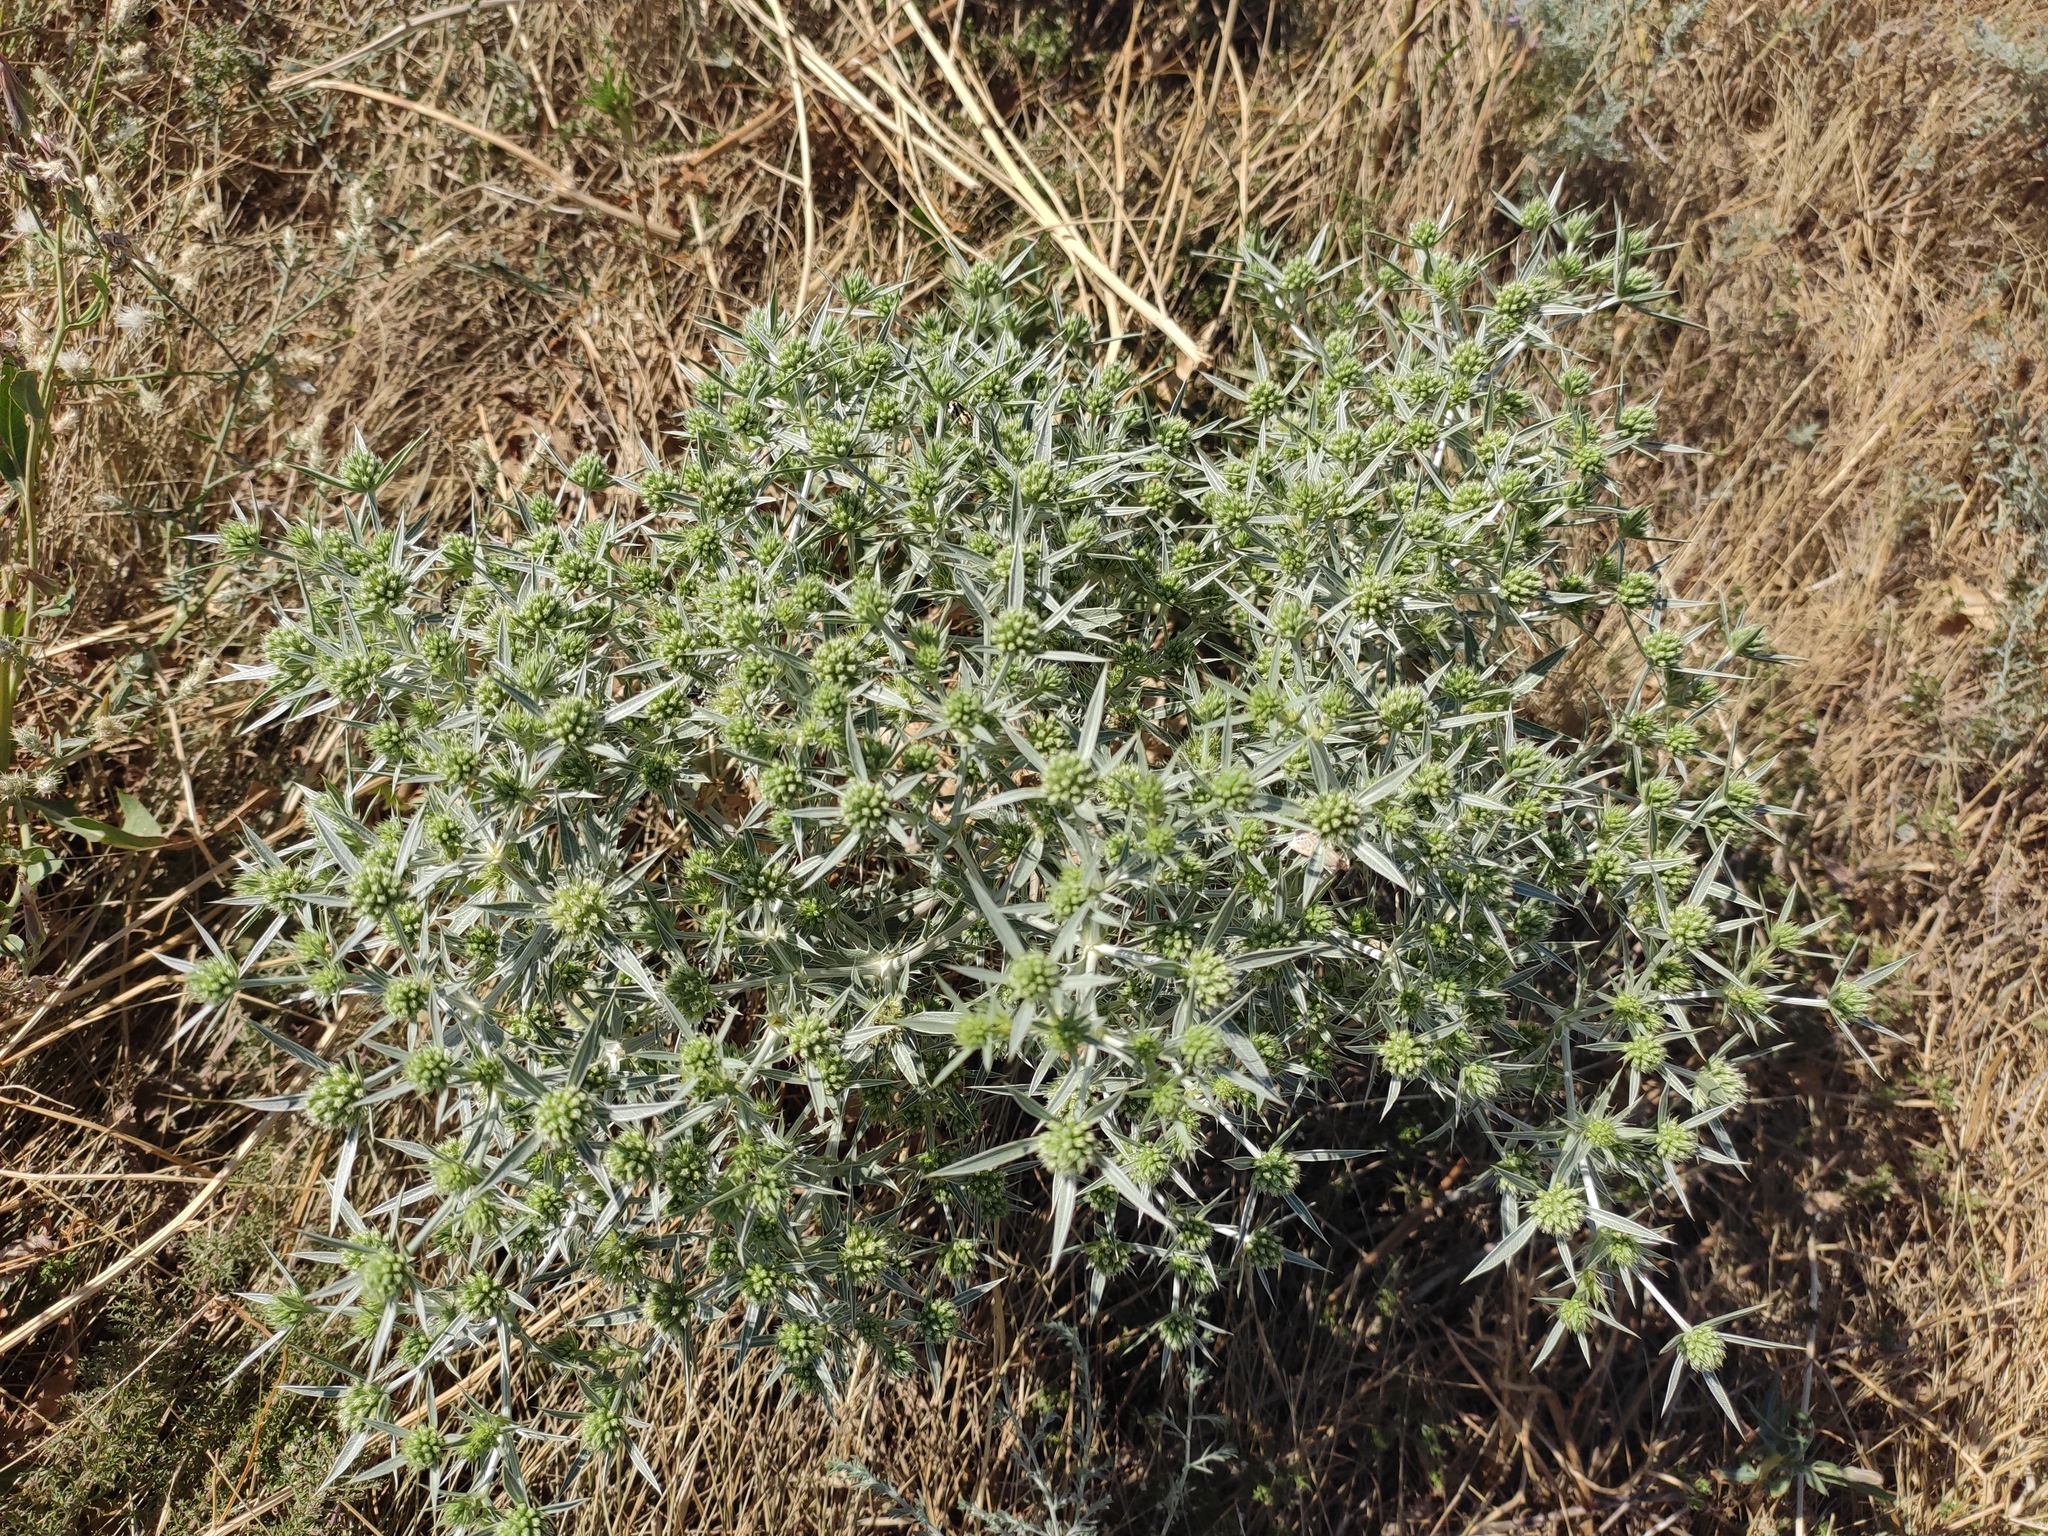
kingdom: Plantae
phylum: Tracheophyta
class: Magnoliopsida
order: Apiales
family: Apiaceae
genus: Eryngium
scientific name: Eryngium campestre
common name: Field eryngo
